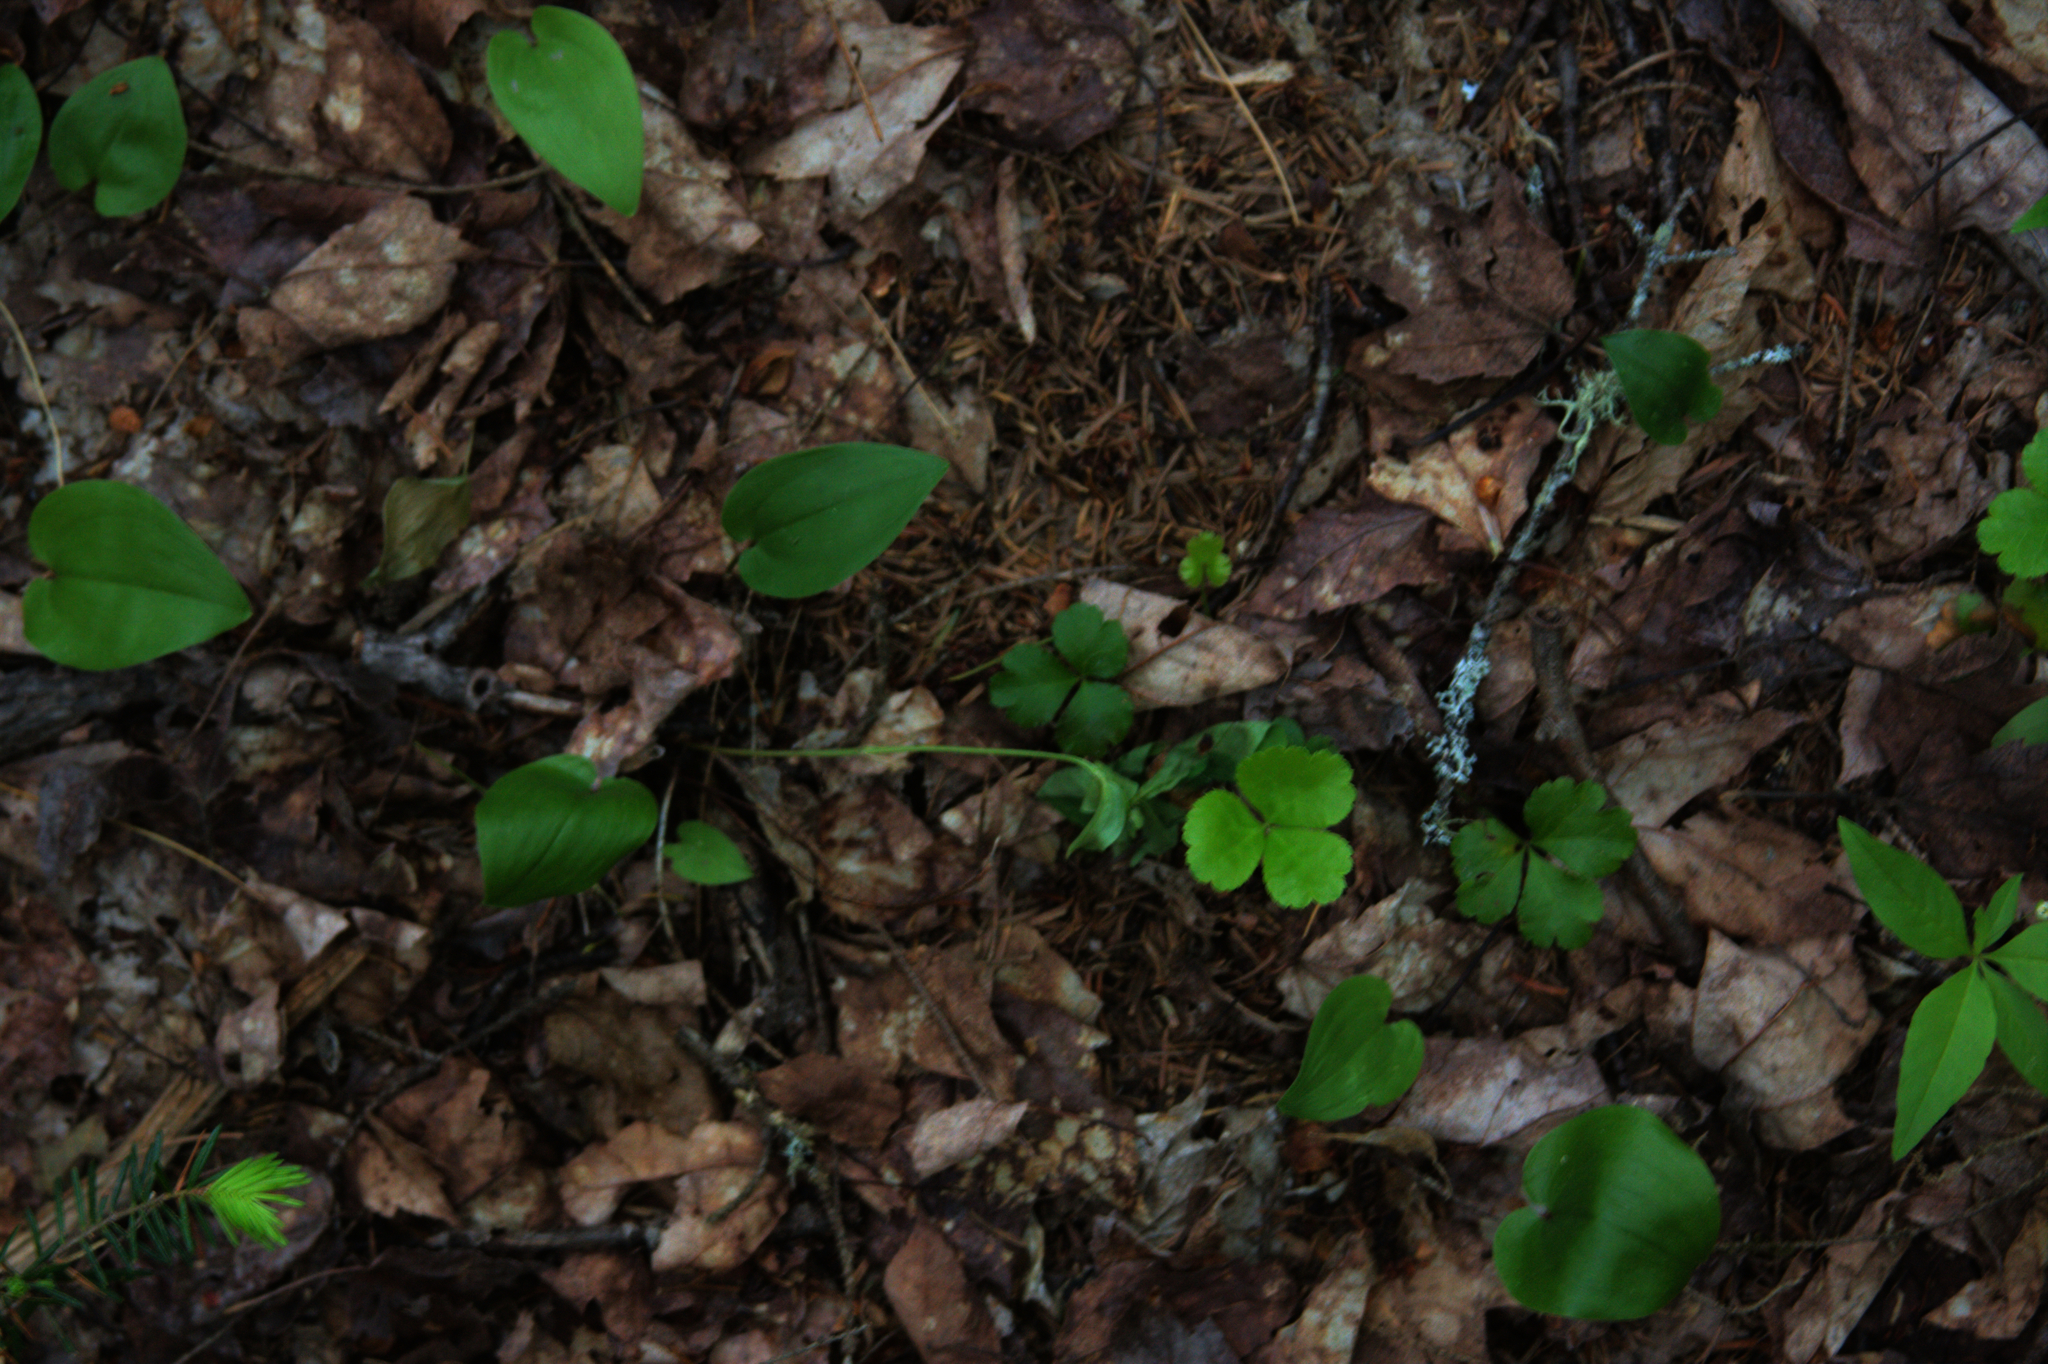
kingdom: Plantae
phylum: Tracheophyta
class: Magnoliopsida
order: Ranunculales
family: Ranunculaceae
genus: Coptis
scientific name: Coptis trifolia
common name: Canker-root
